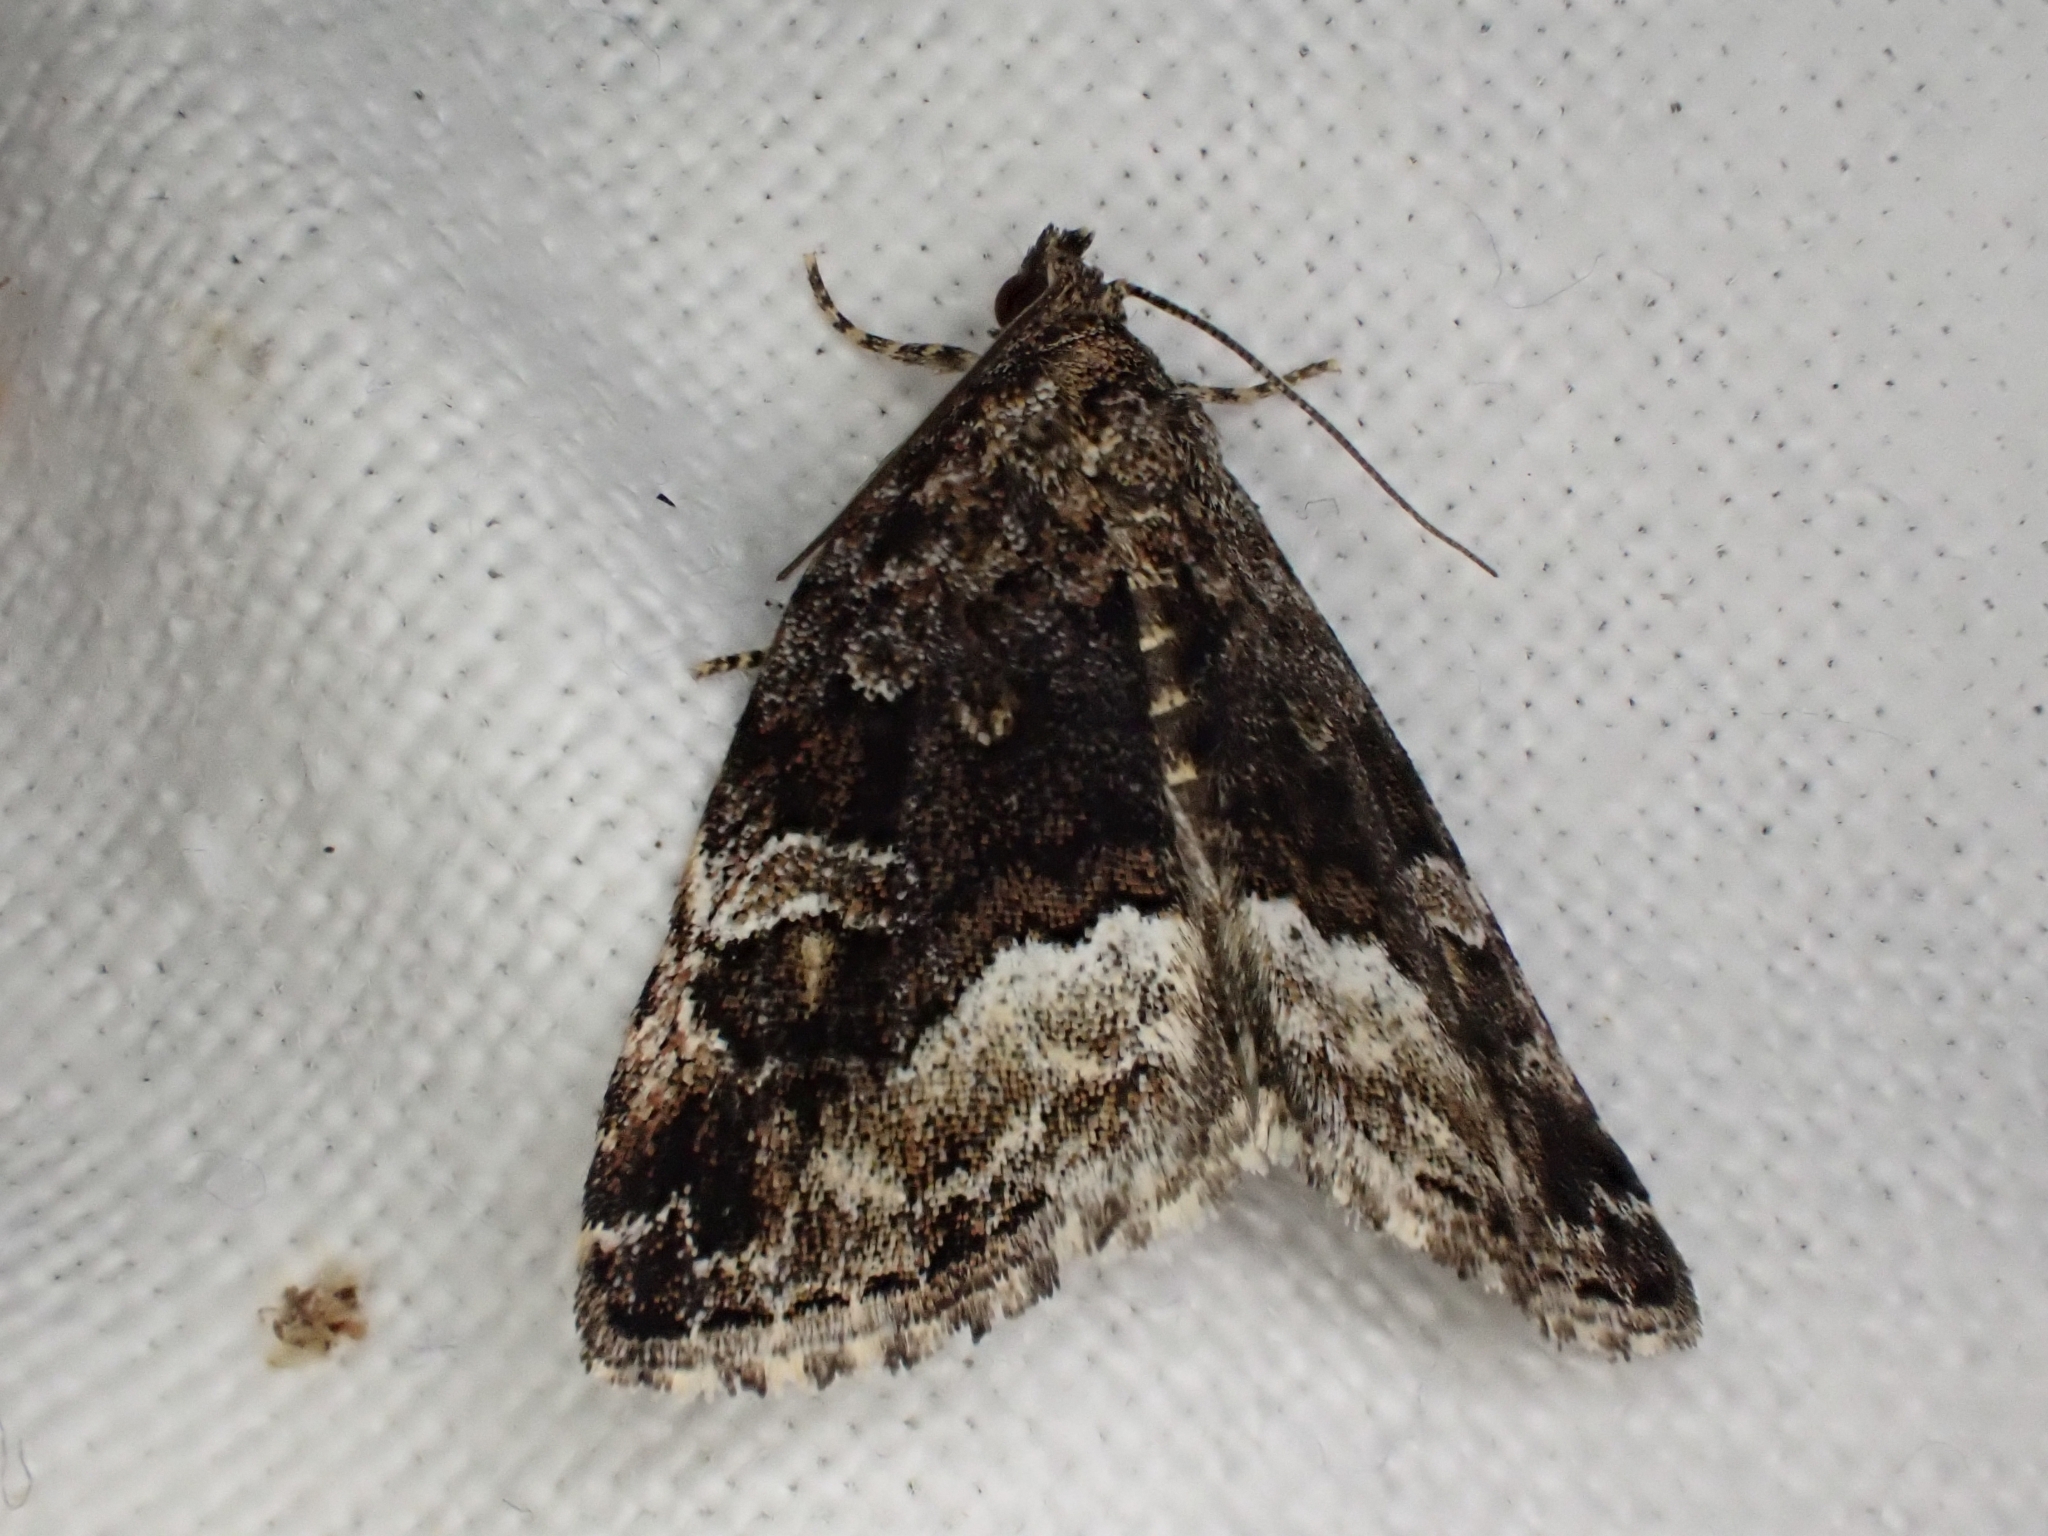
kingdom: Animalia
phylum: Arthropoda
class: Insecta
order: Lepidoptera
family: Noctuidae
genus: Deltote
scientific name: Deltote pygarga
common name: Marbled white spot
